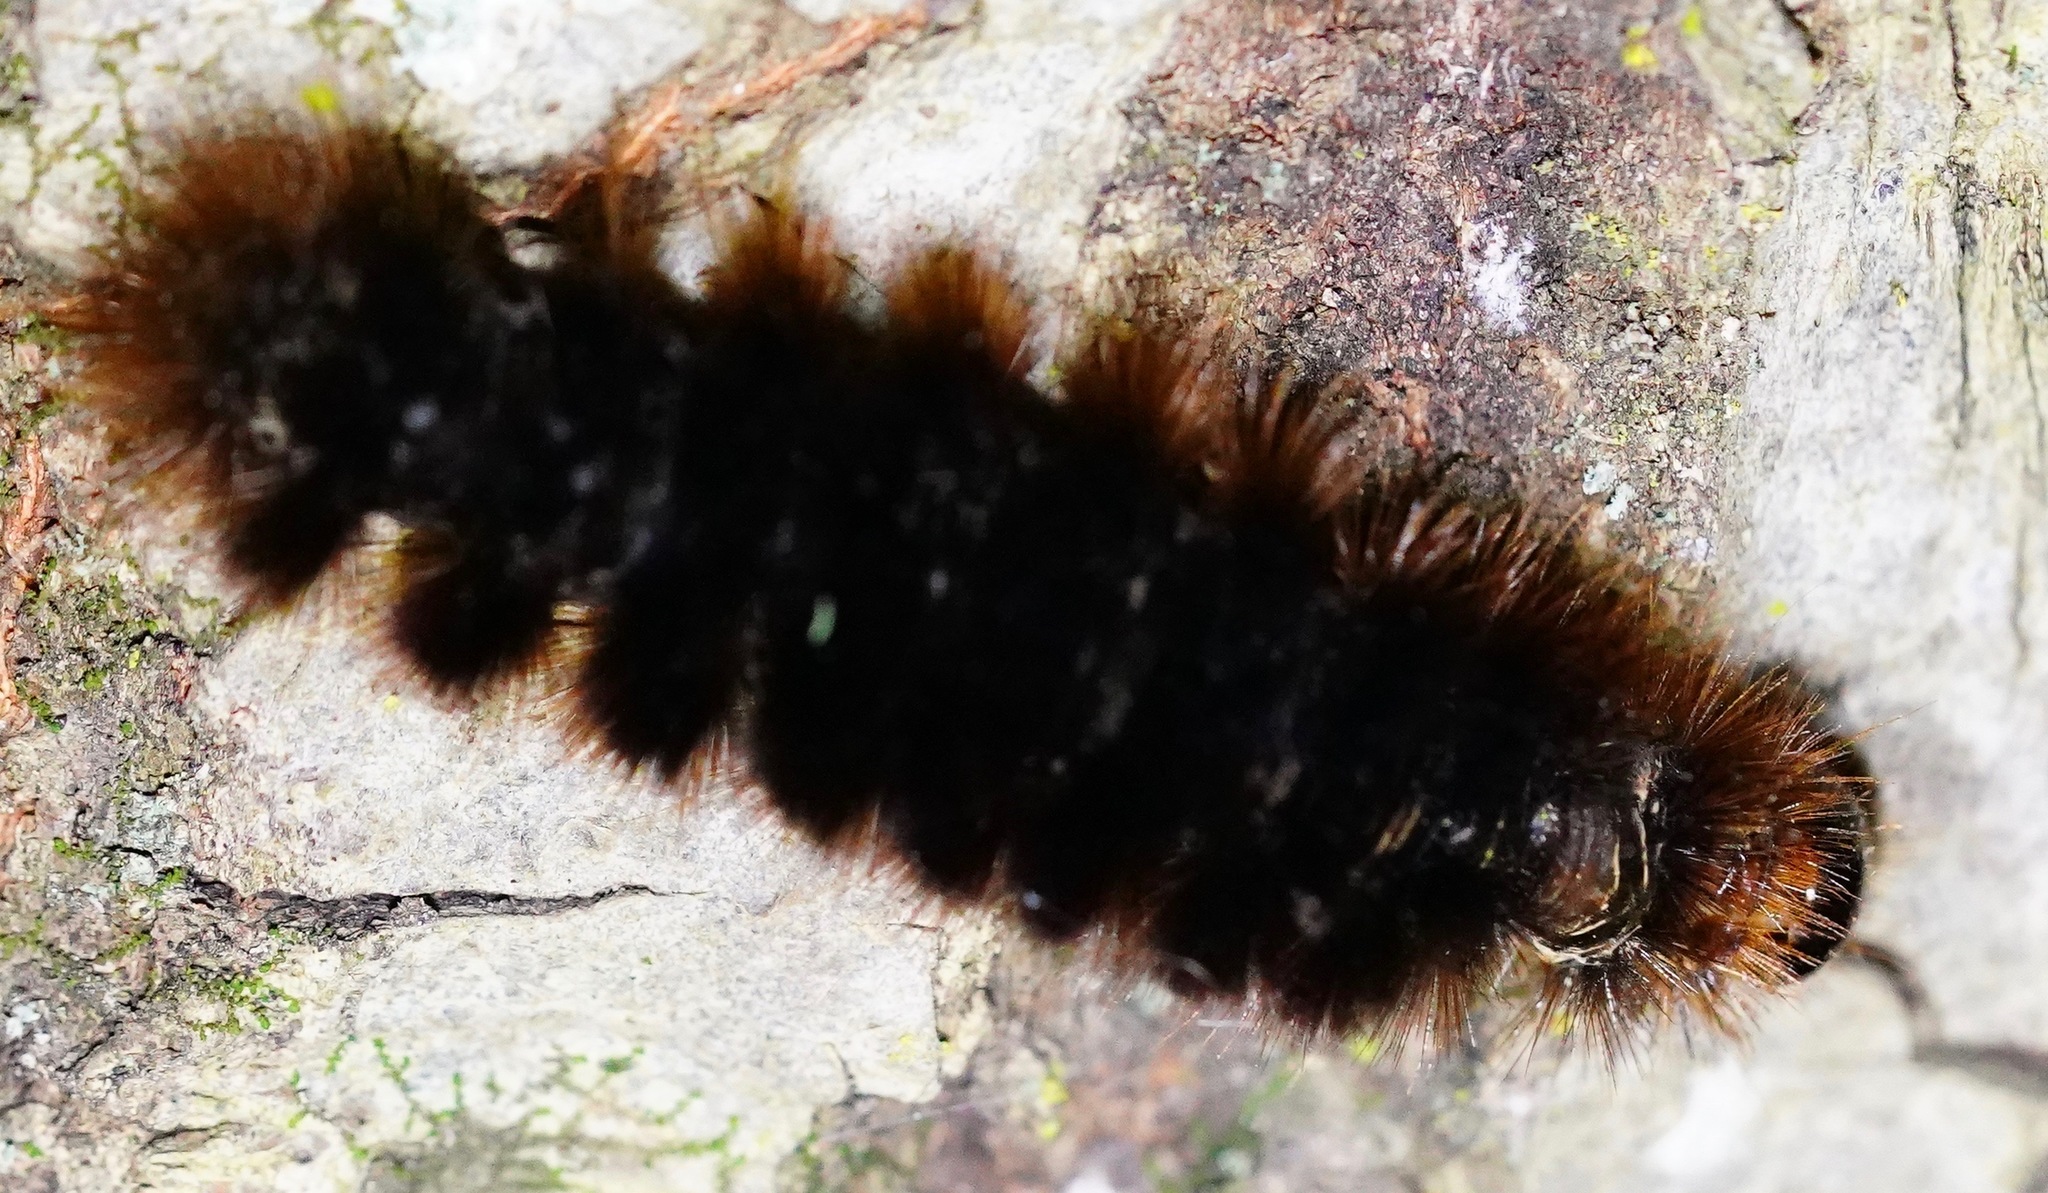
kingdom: Animalia
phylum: Arthropoda
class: Insecta
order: Lepidoptera
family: Erebidae
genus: Hemihyalea
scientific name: Hemihyalea edwardsii
